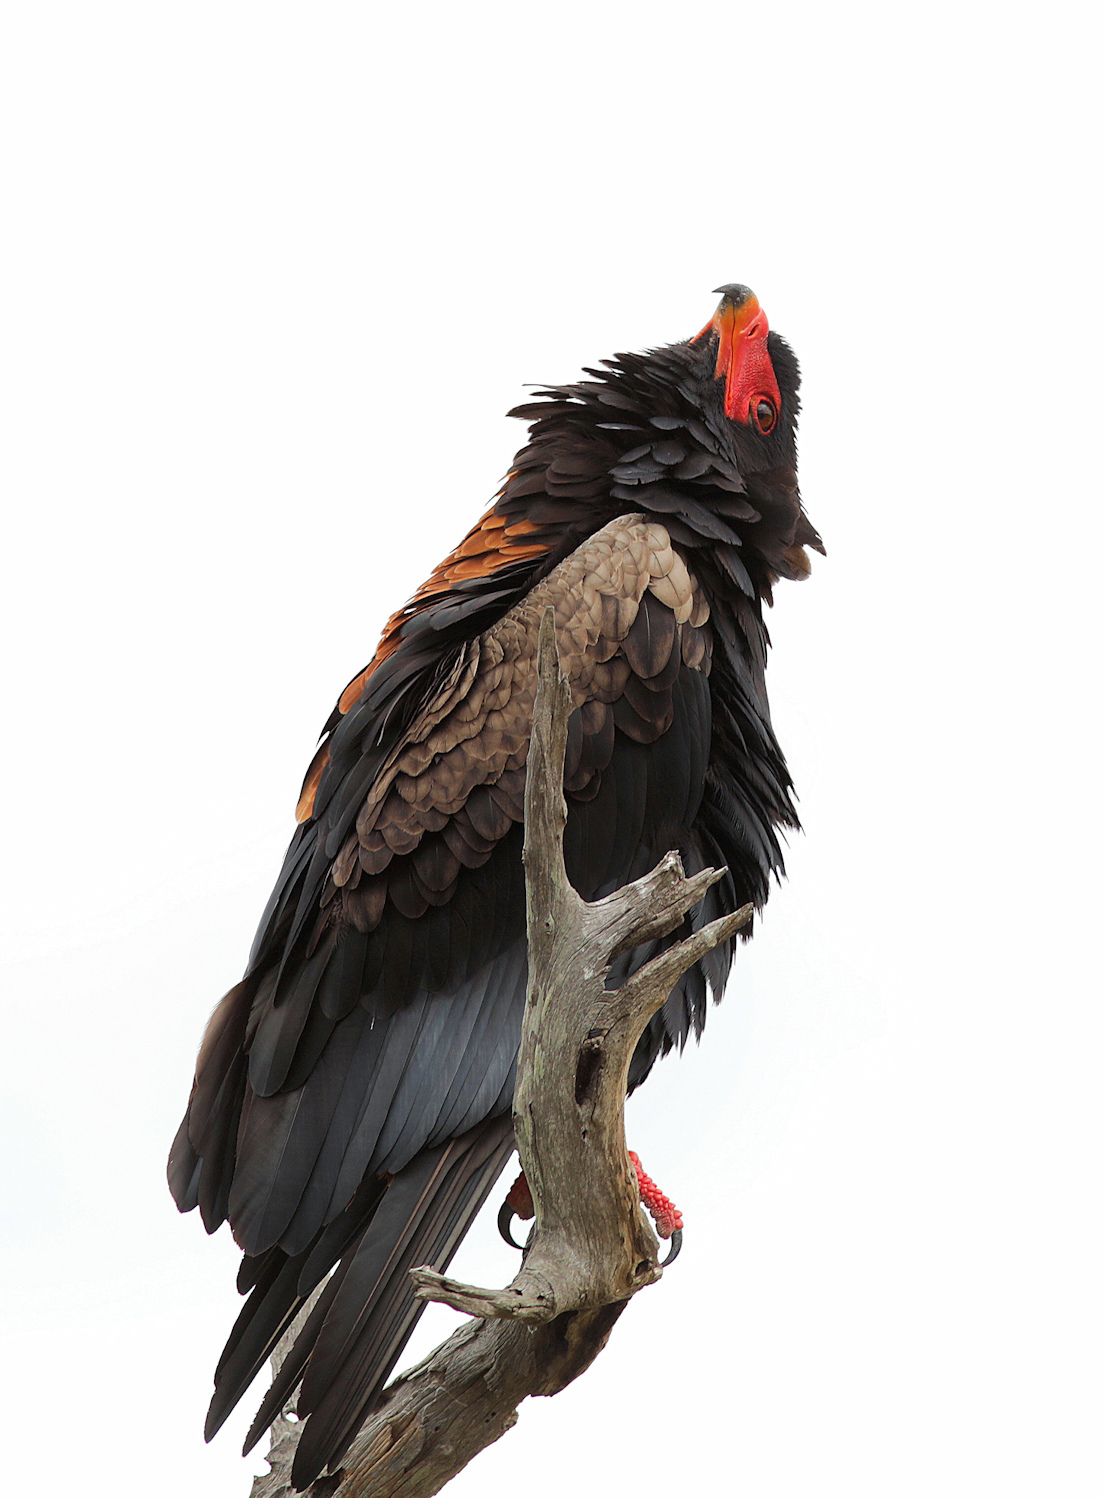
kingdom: Animalia
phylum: Chordata
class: Aves
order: Accipitriformes
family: Accipitridae
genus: Terathopius
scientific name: Terathopius ecaudatus
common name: Bateleur
